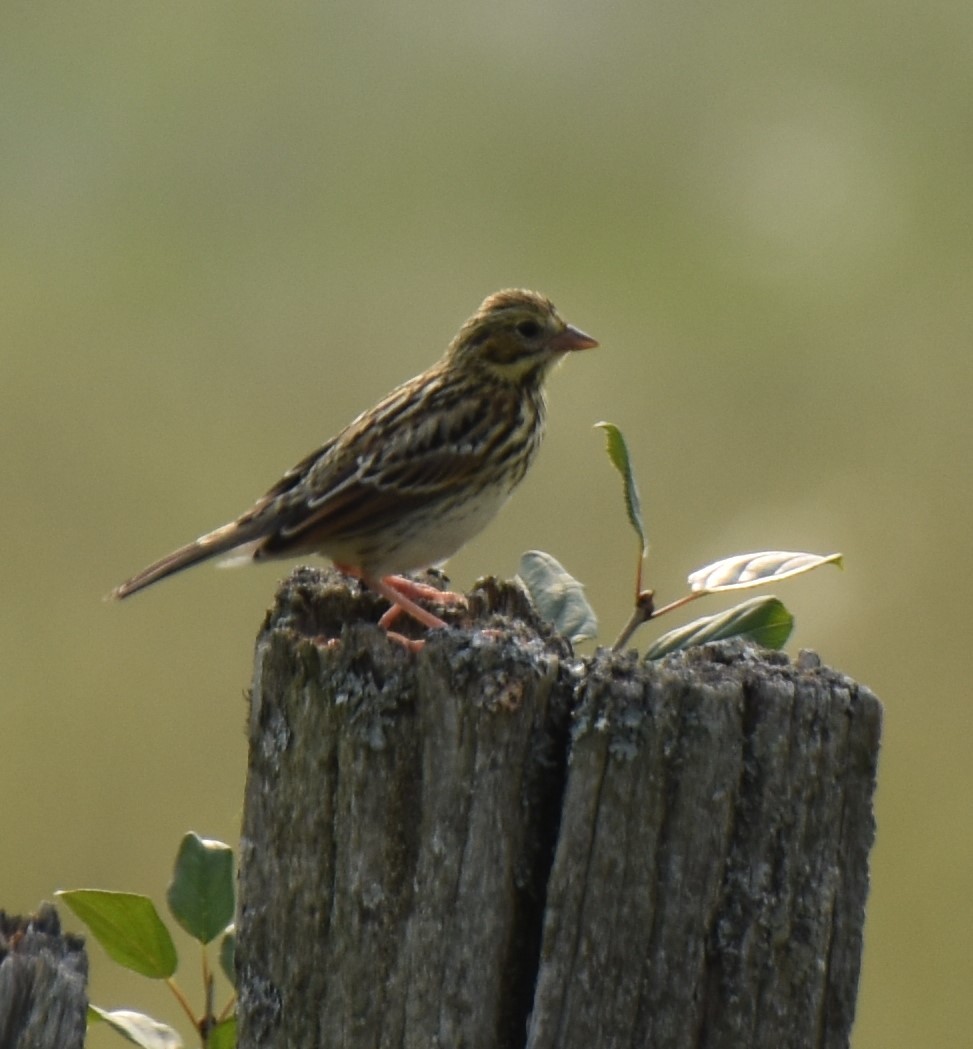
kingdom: Animalia
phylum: Chordata
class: Aves
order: Passeriformes
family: Passerellidae
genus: Passerculus
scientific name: Passerculus sandwichensis
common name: Savannah sparrow
